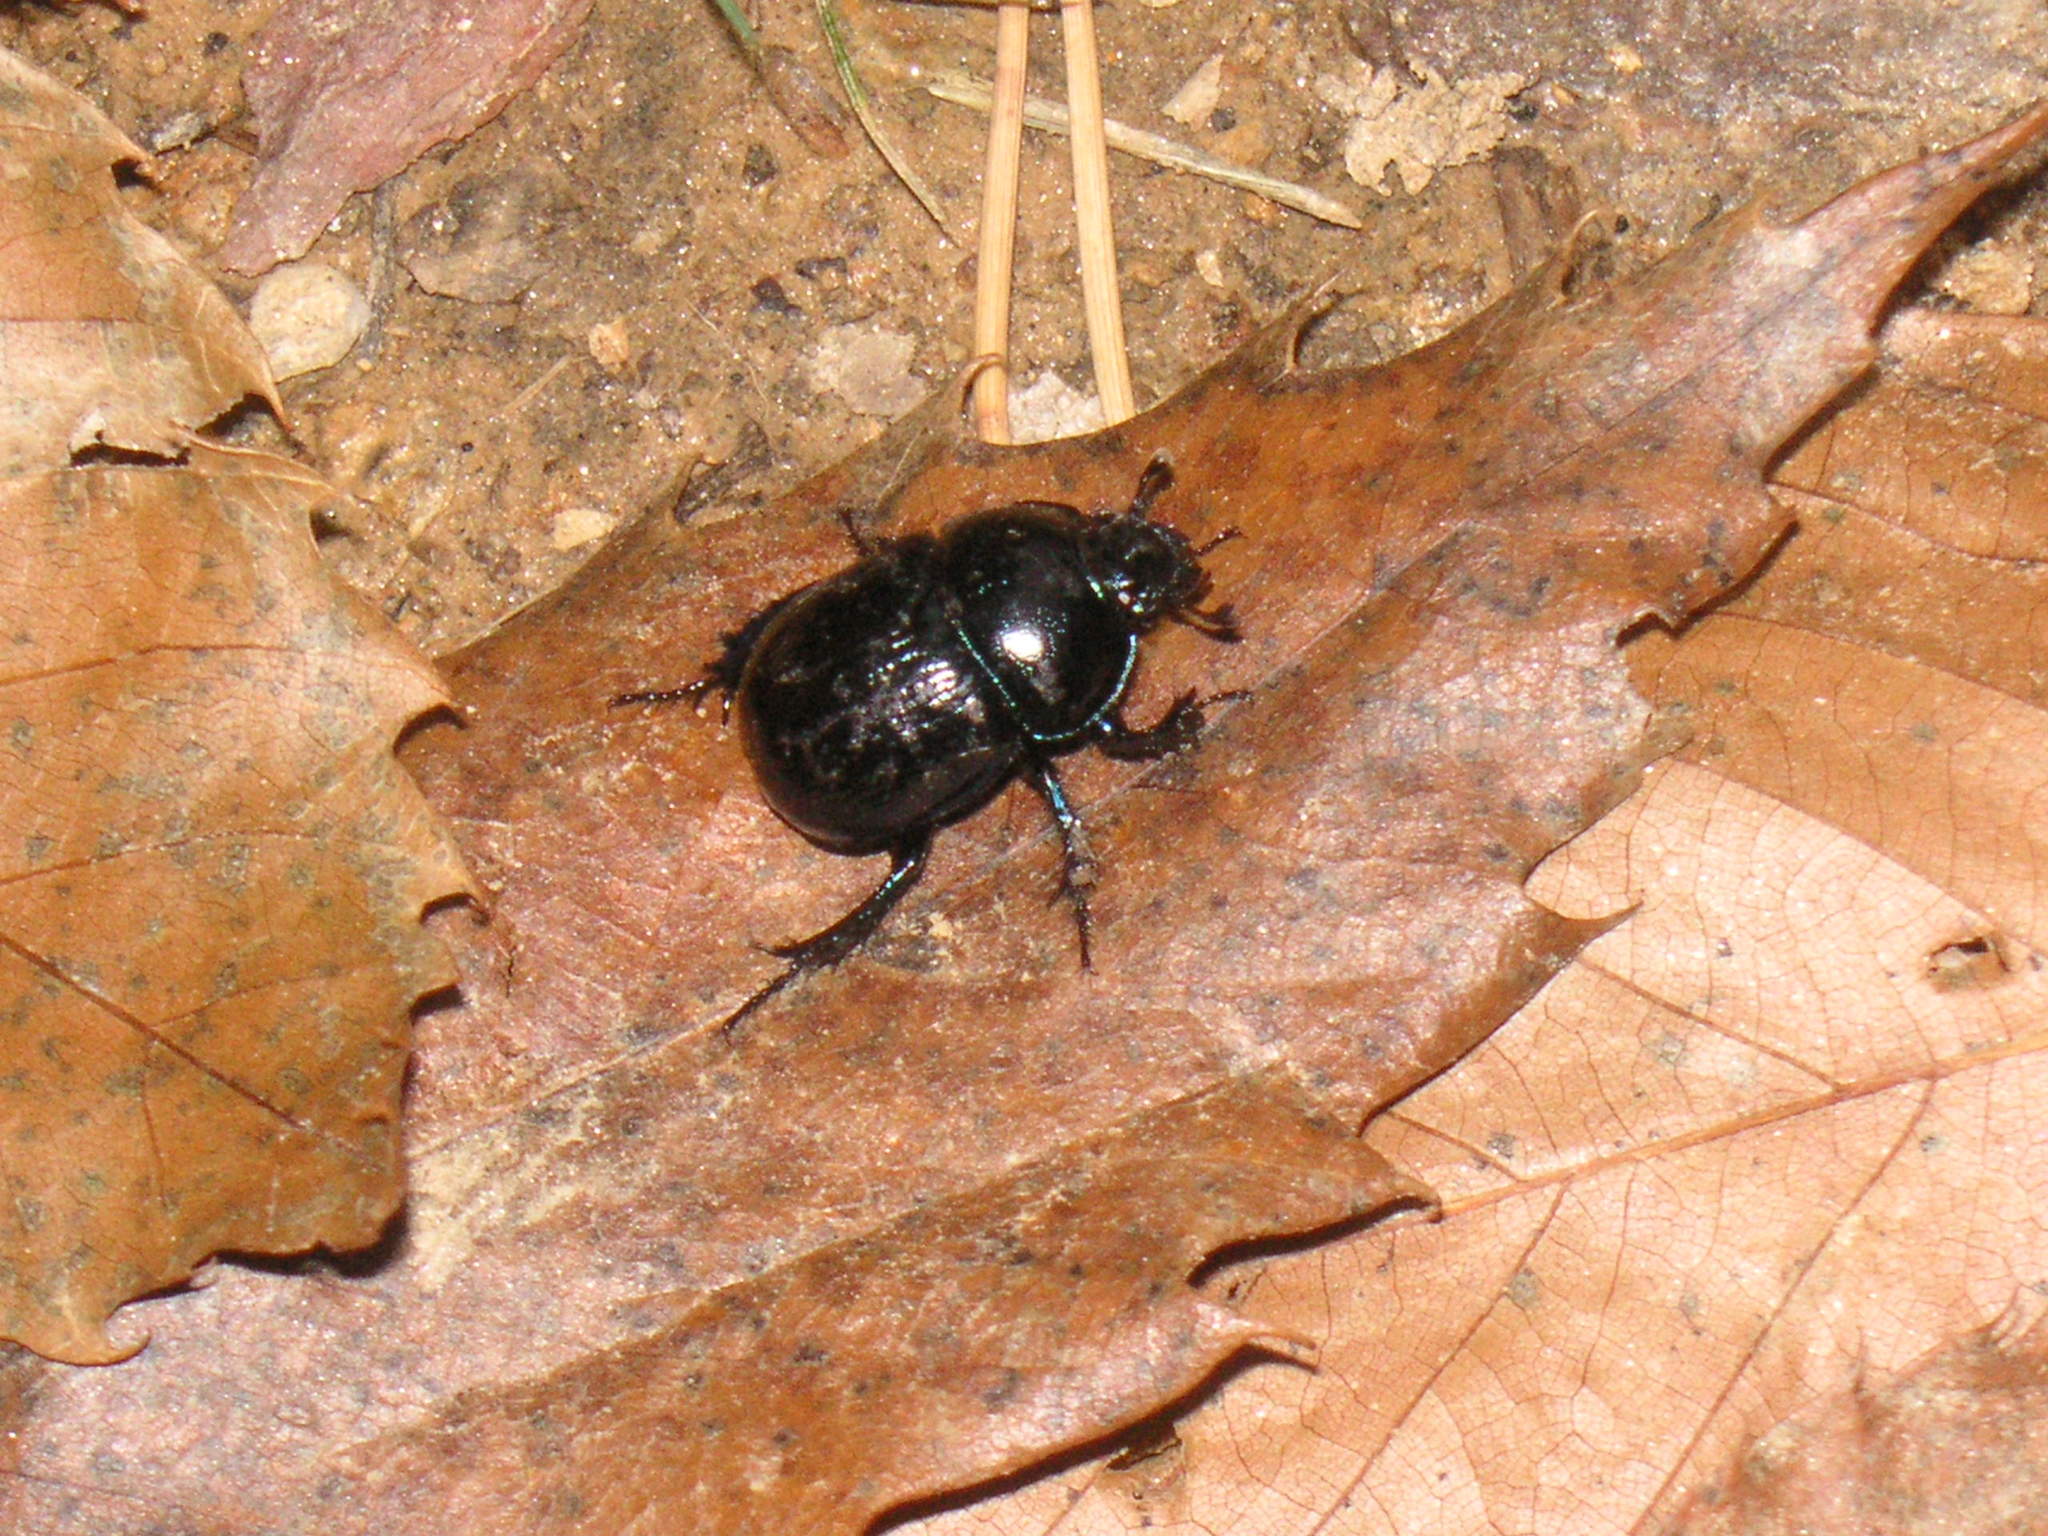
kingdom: Animalia
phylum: Arthropoda
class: Insecta
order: Coleoptera
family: Geotrupidae
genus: Anoplotrupes
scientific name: Anoplotrupes stercorosus
